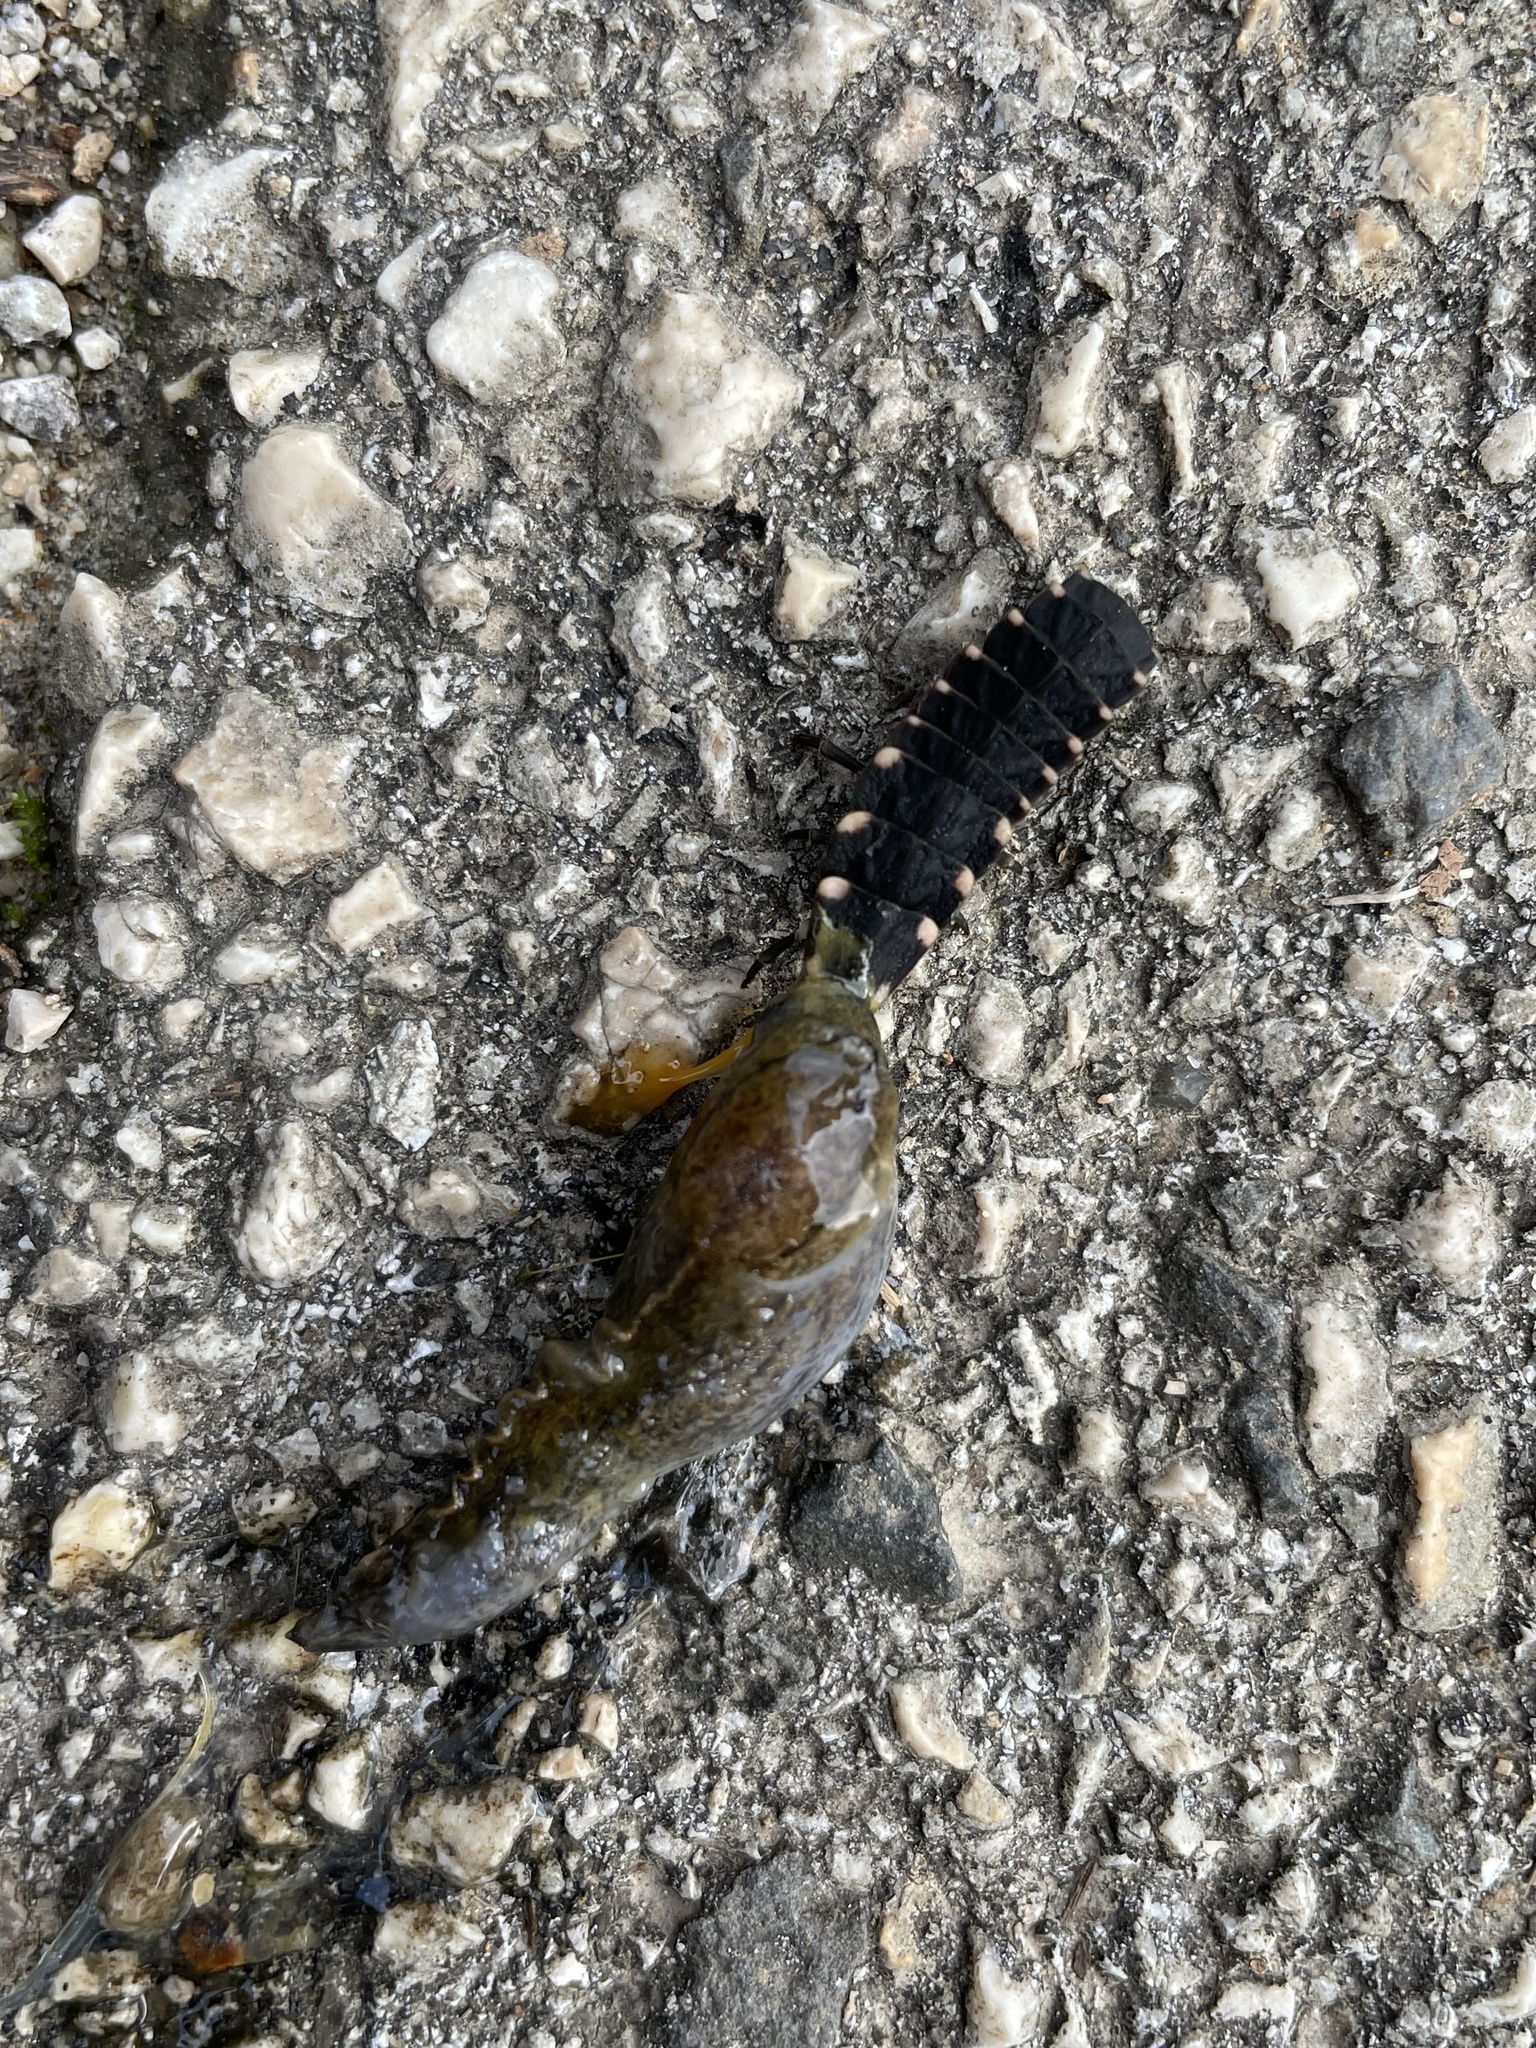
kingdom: Animalia
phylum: Arthropoda
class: Insecta
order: Coleoptera
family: Lampyridae
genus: Lampyris
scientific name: Lampyris fuscata
